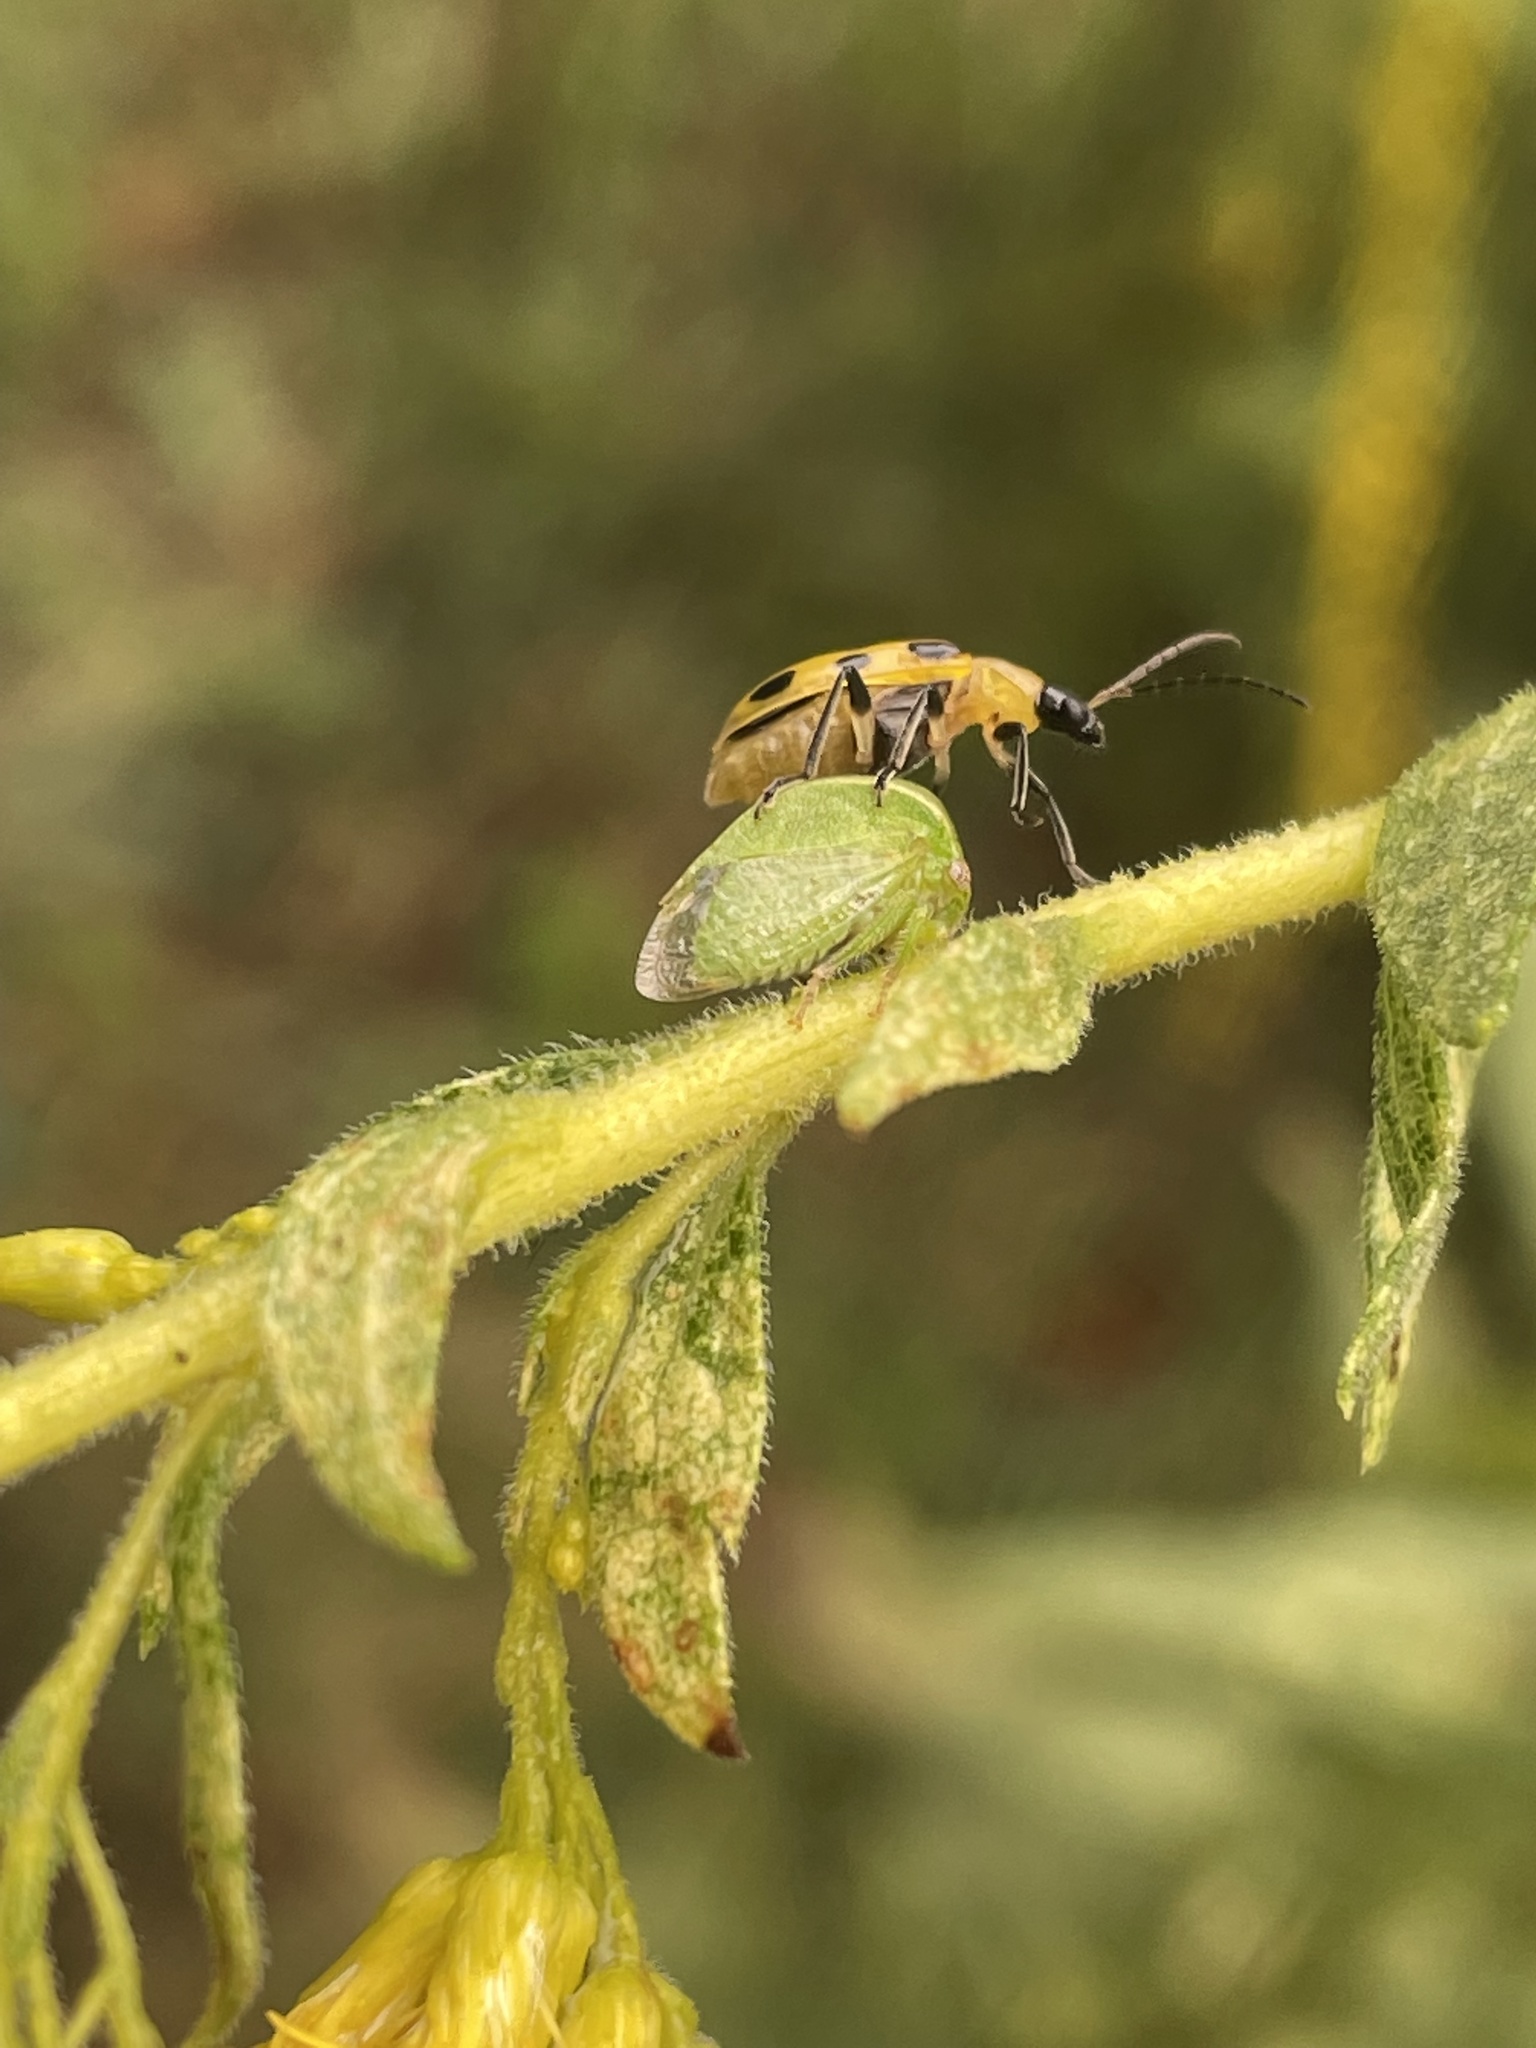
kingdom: Animalia
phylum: Arthropoda
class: Insecta
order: Coleoptera
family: Chrysomelidae
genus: Diabrotica
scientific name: Diabrotica undecimpunctata
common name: Spotted cucumber beetle
